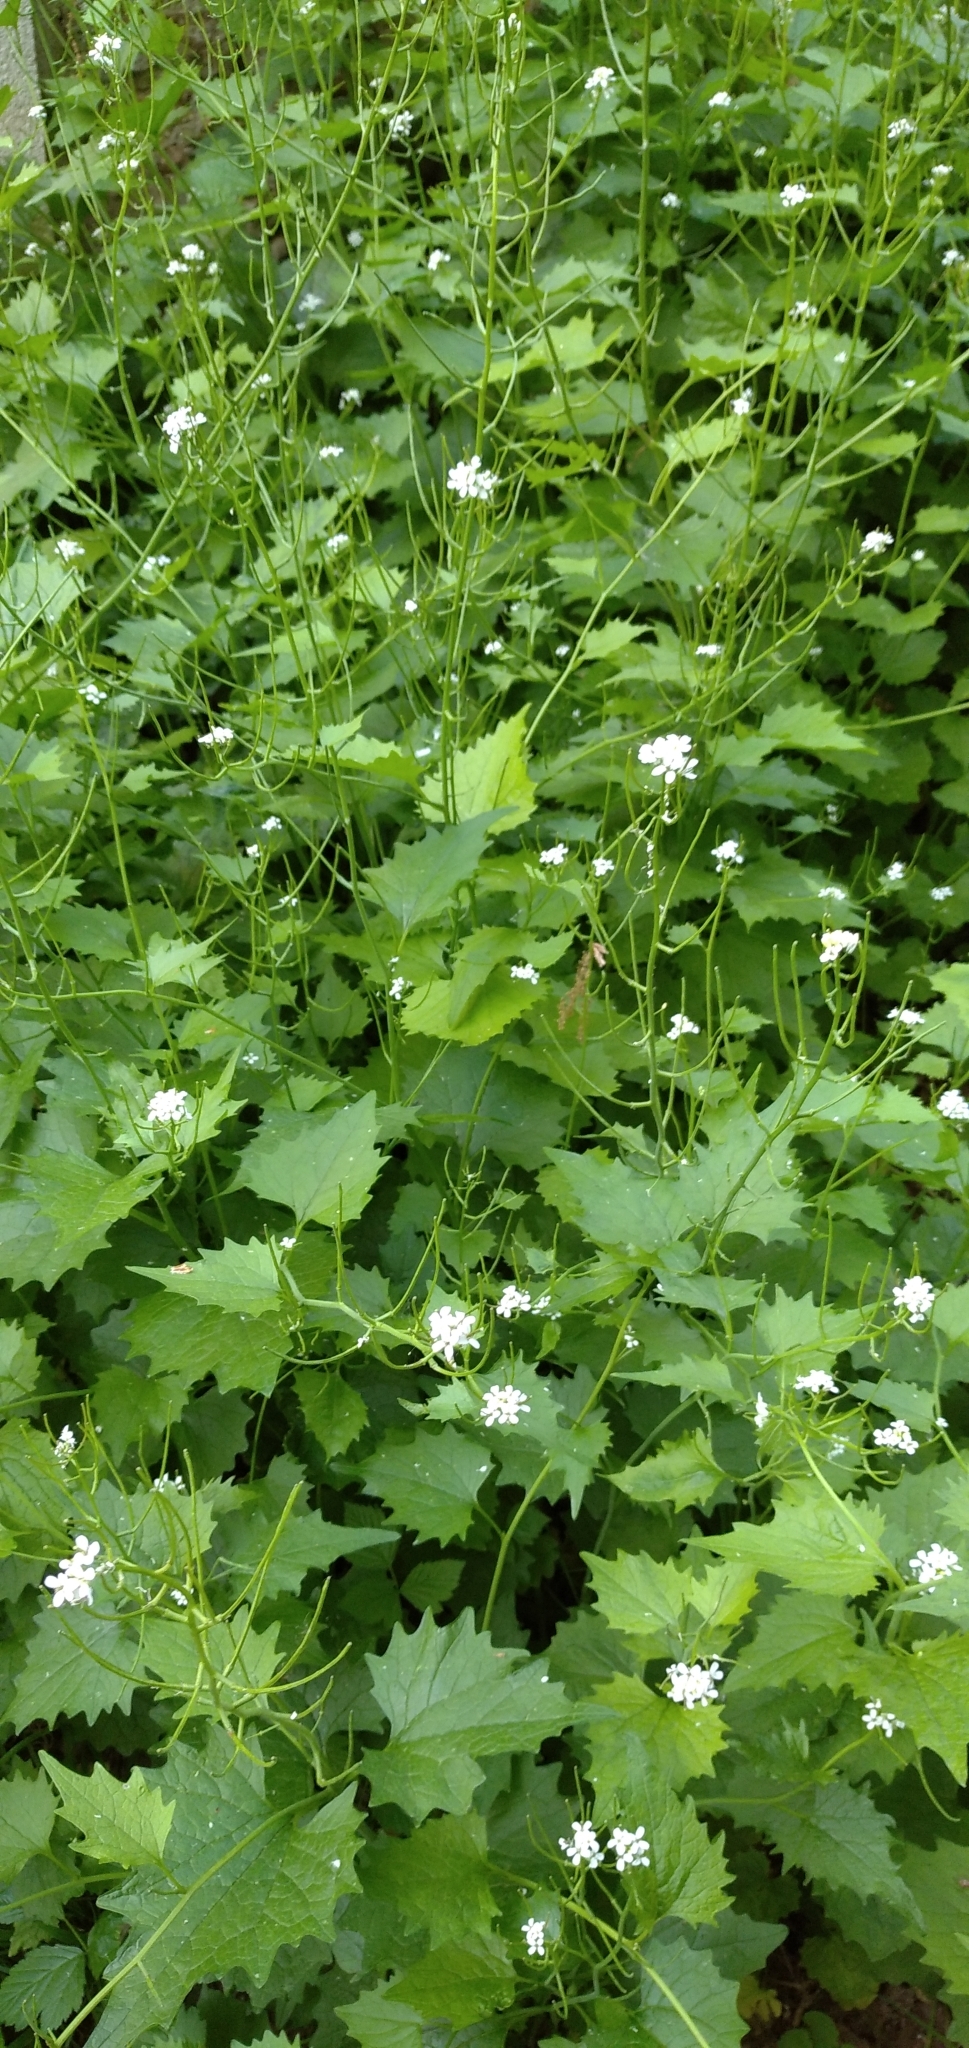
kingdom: Plantae
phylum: Tracheophyta
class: Magnoliopsida
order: Brassicales
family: Brassicaceae
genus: Alliaria
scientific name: Alliaria petiolata
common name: Garlic mustard
